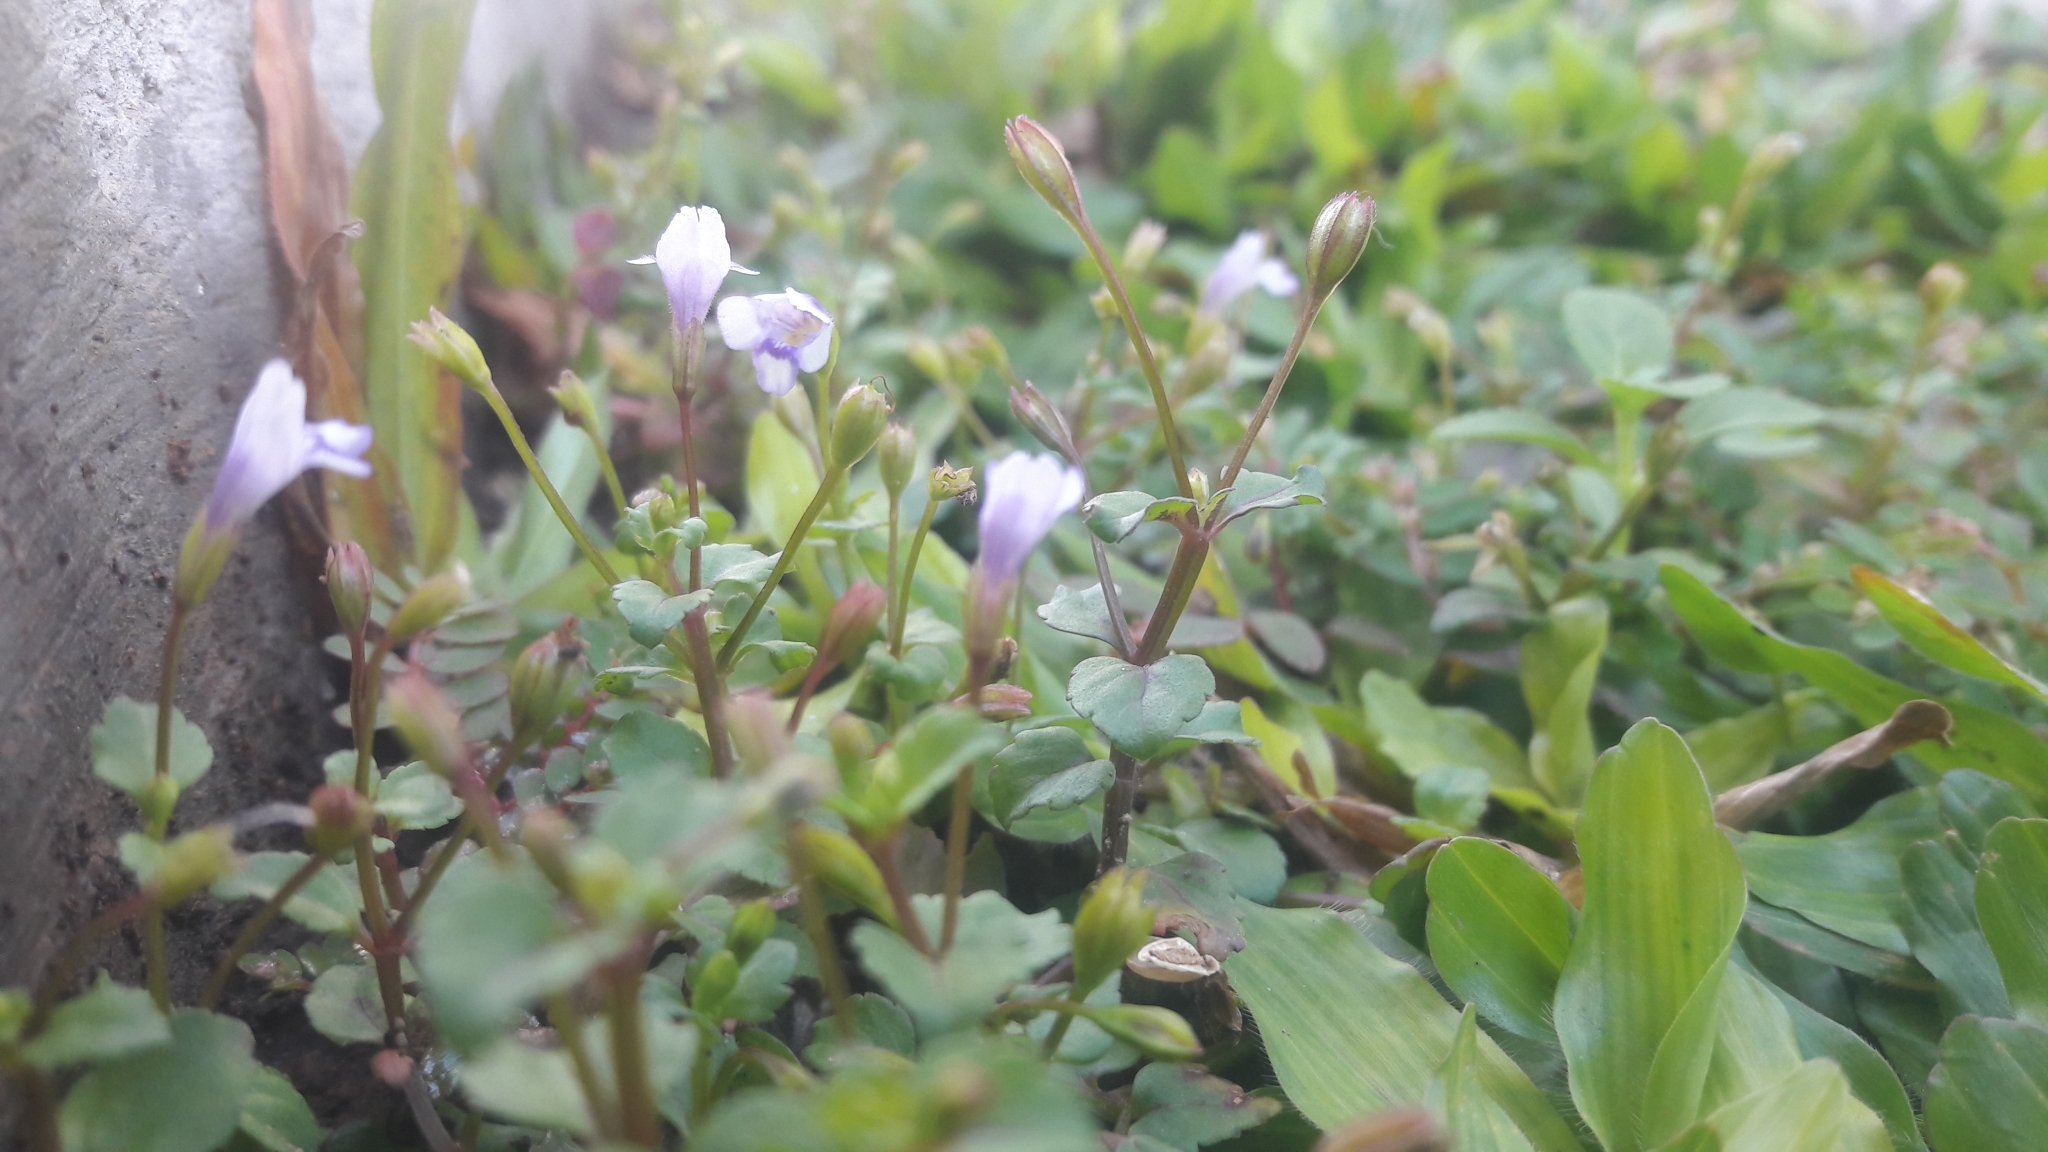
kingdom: Plantae
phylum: Tracheophyta
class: Magnoliopsida
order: Lamiales
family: Linderniaceae
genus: Torenia
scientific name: Torenia crustacea
